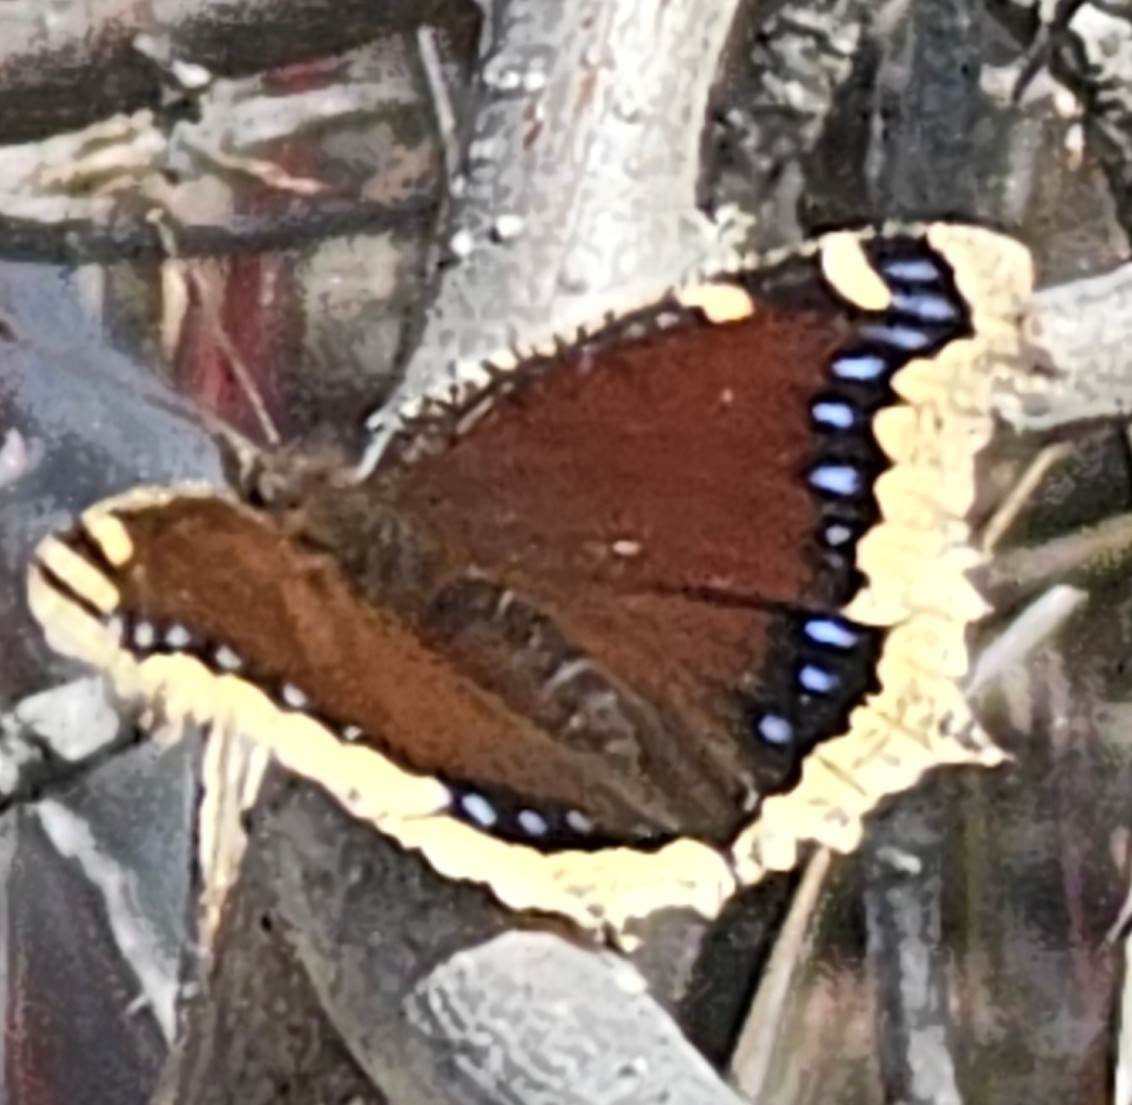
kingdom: Animalia
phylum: Arthropoda
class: Insecta
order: Lepidoptera
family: Nymphalidae
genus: Nymphalis
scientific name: Nymphalis antiopa
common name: Camberwell beauty
